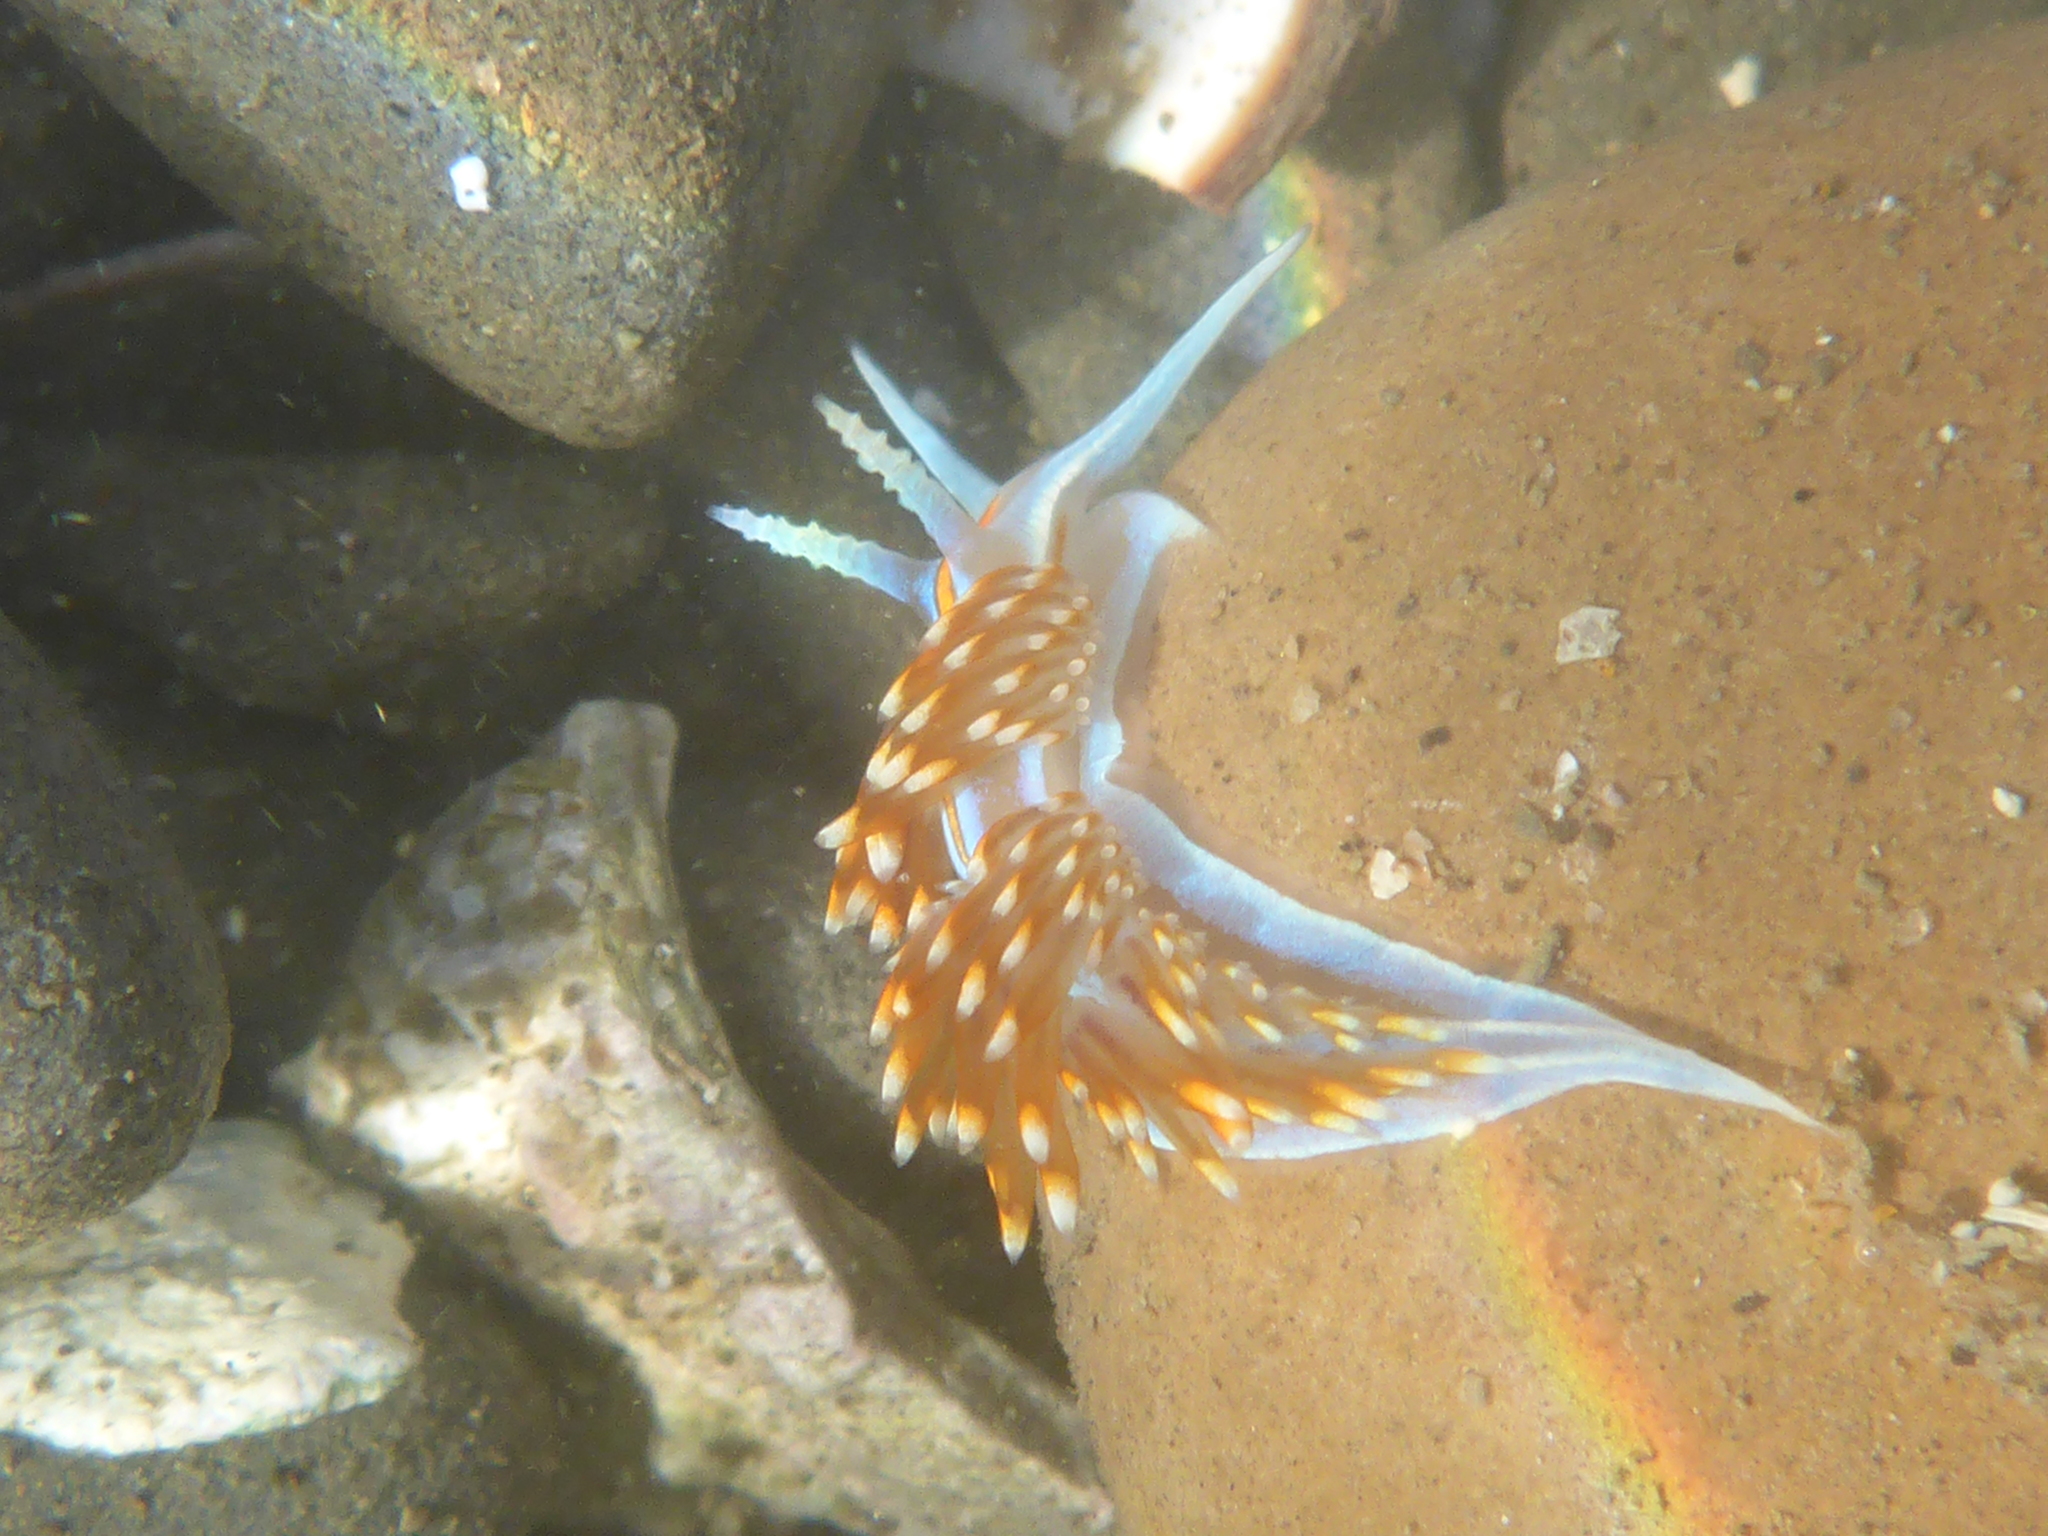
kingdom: Animalia
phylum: Mollusca
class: Gastropoda
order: Nudibranchia
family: Myrrhinidae
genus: Hermissenda
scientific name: Hermissenda opalescens
